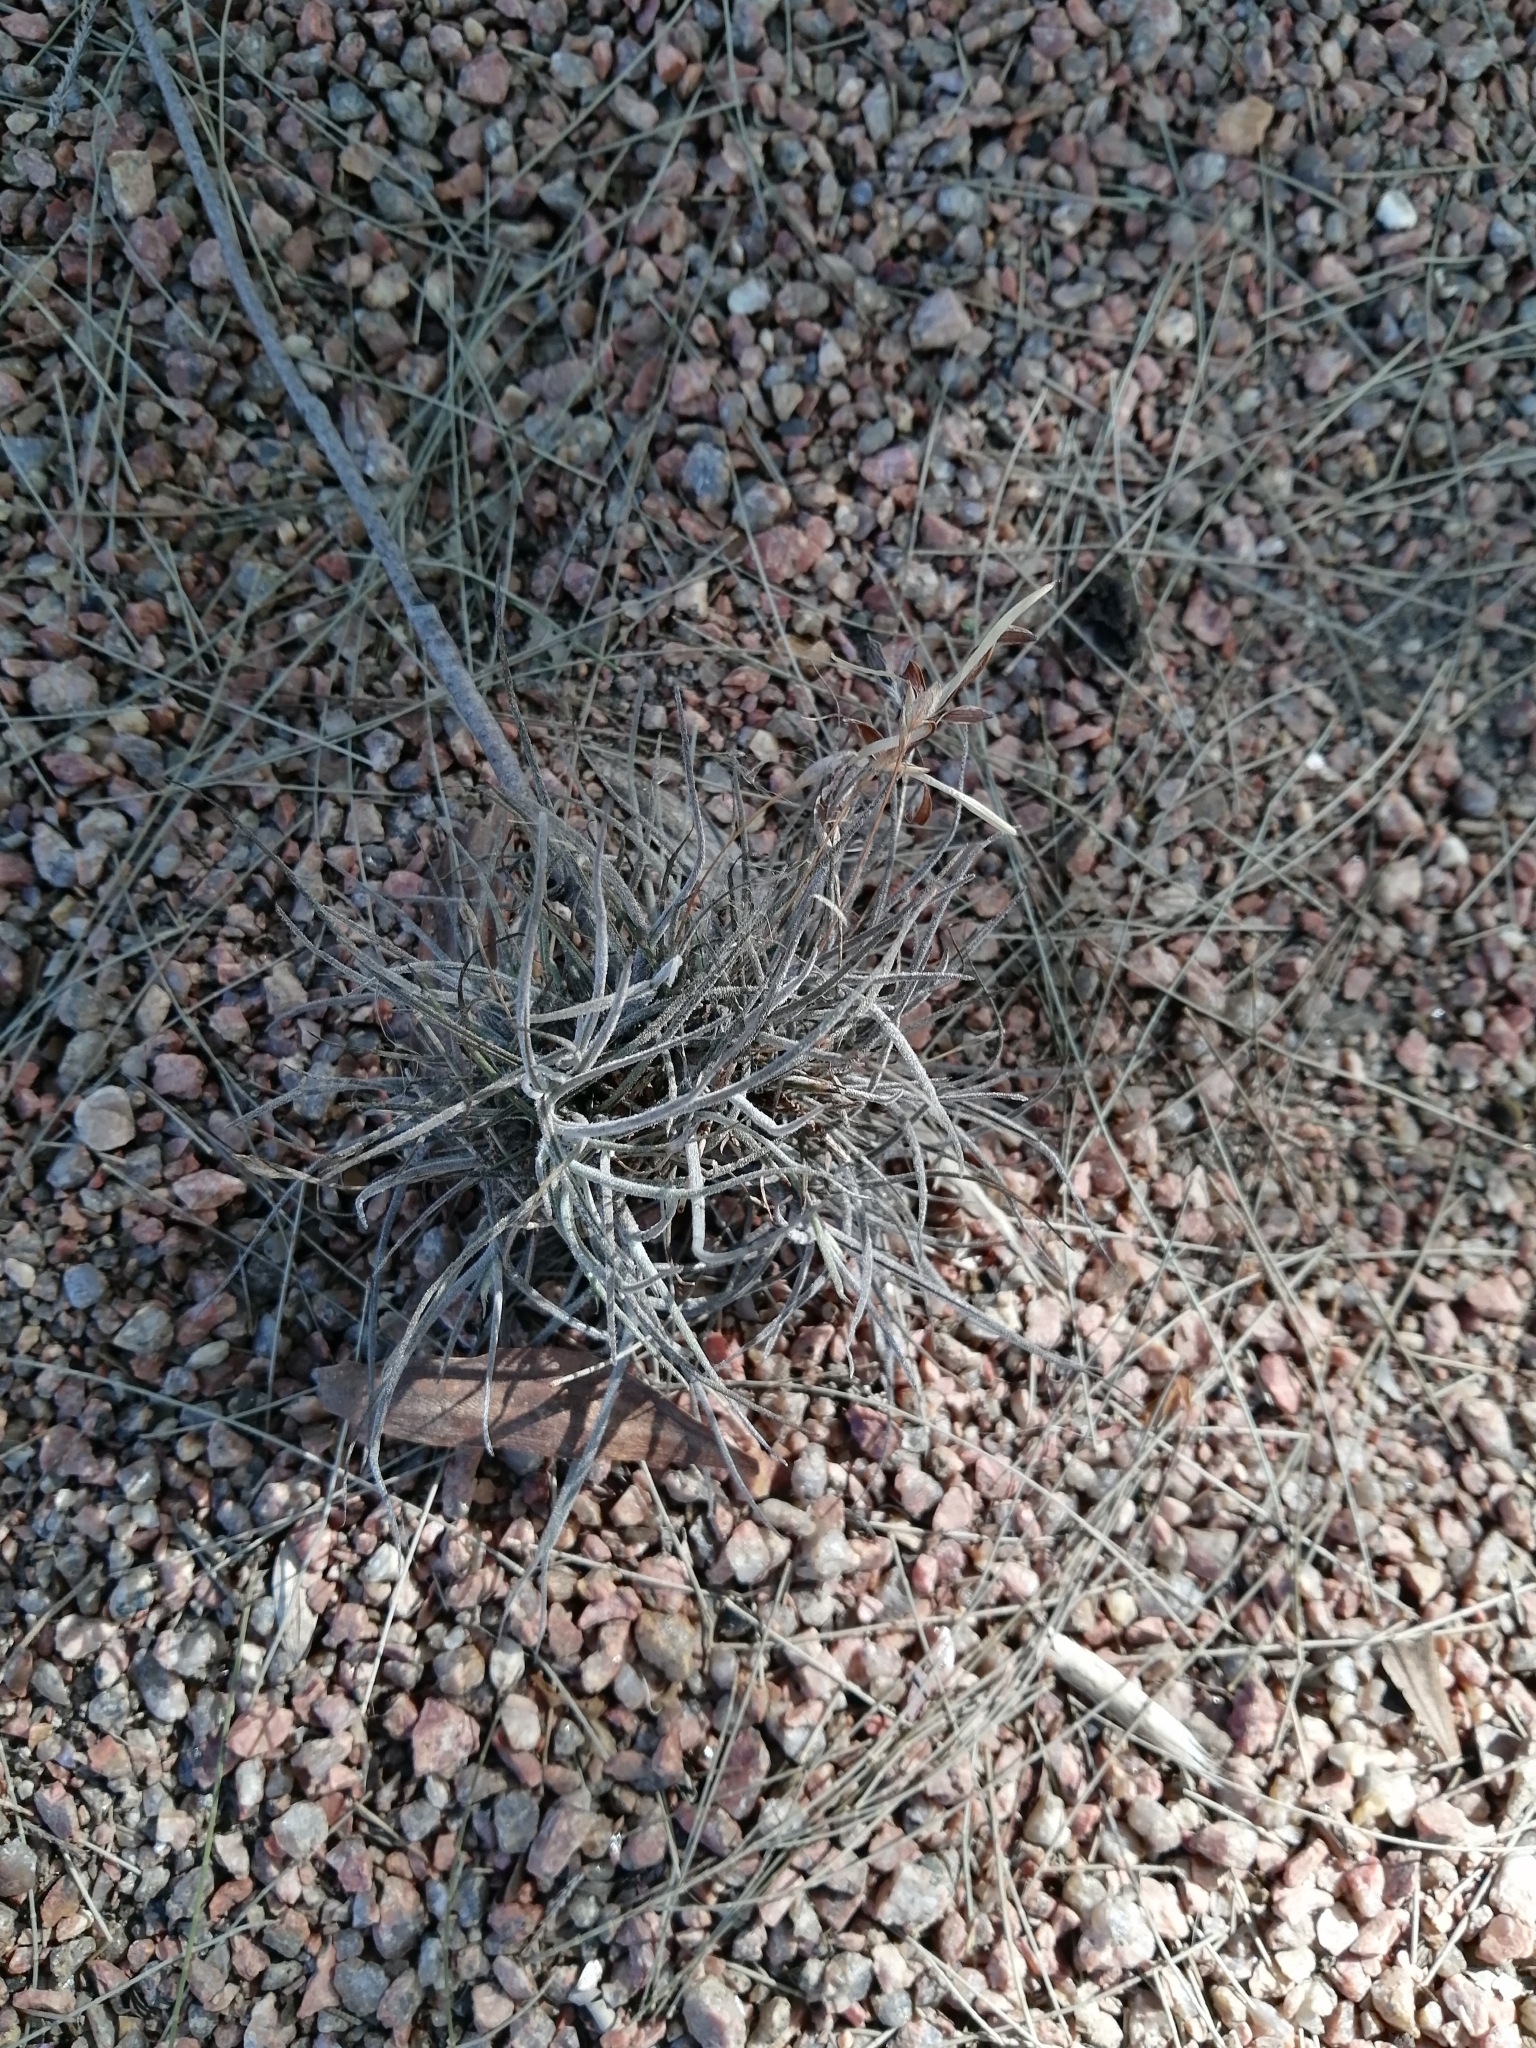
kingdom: Plantae
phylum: Tracheophyta
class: Liliopsida
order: Poales
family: Bromeliaceae
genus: Tillandsia
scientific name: Tillandsia recurvata
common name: Small ballmoss
